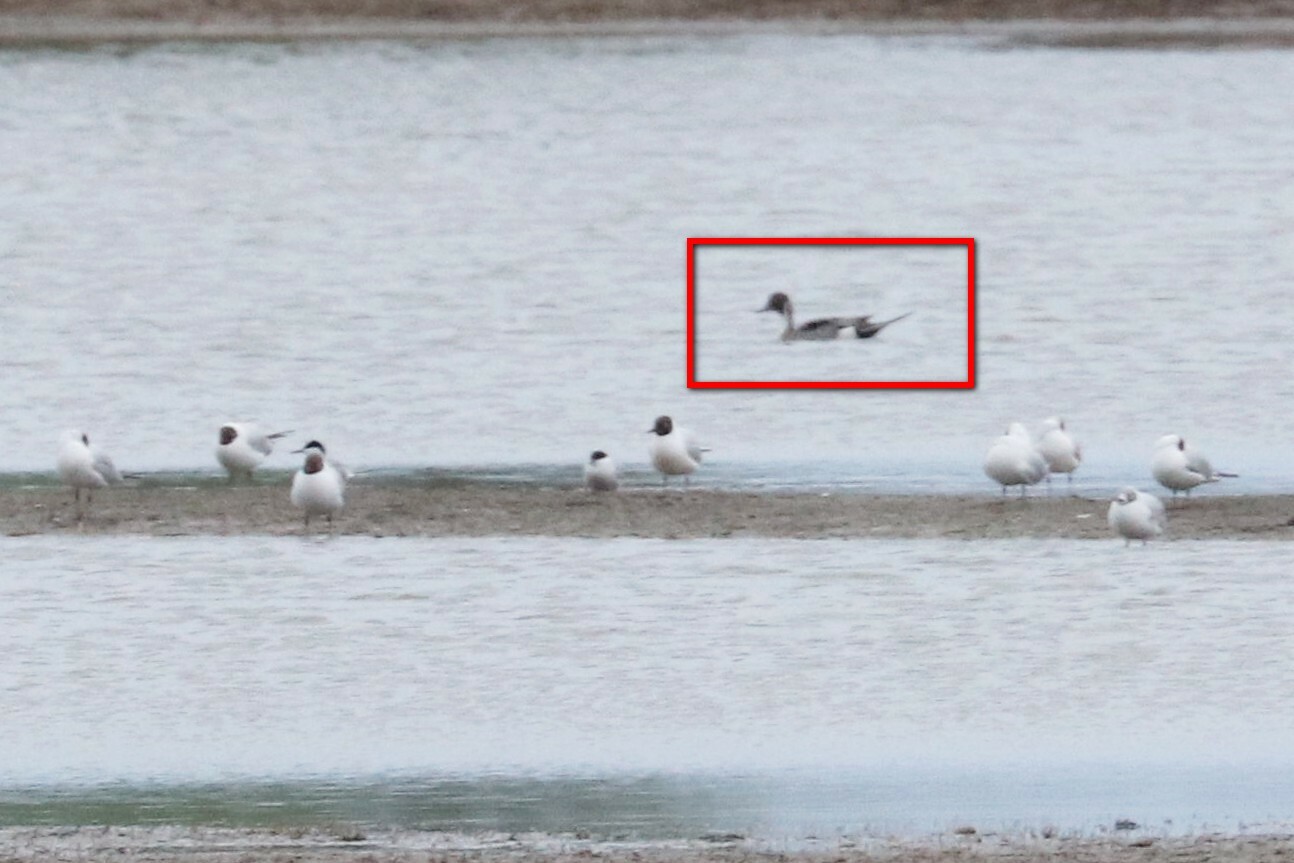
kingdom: Animalia
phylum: Chordata
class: Aves
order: Anseriformes
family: Anatidae
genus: Anas
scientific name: Anas acuta
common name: Northern pintail
